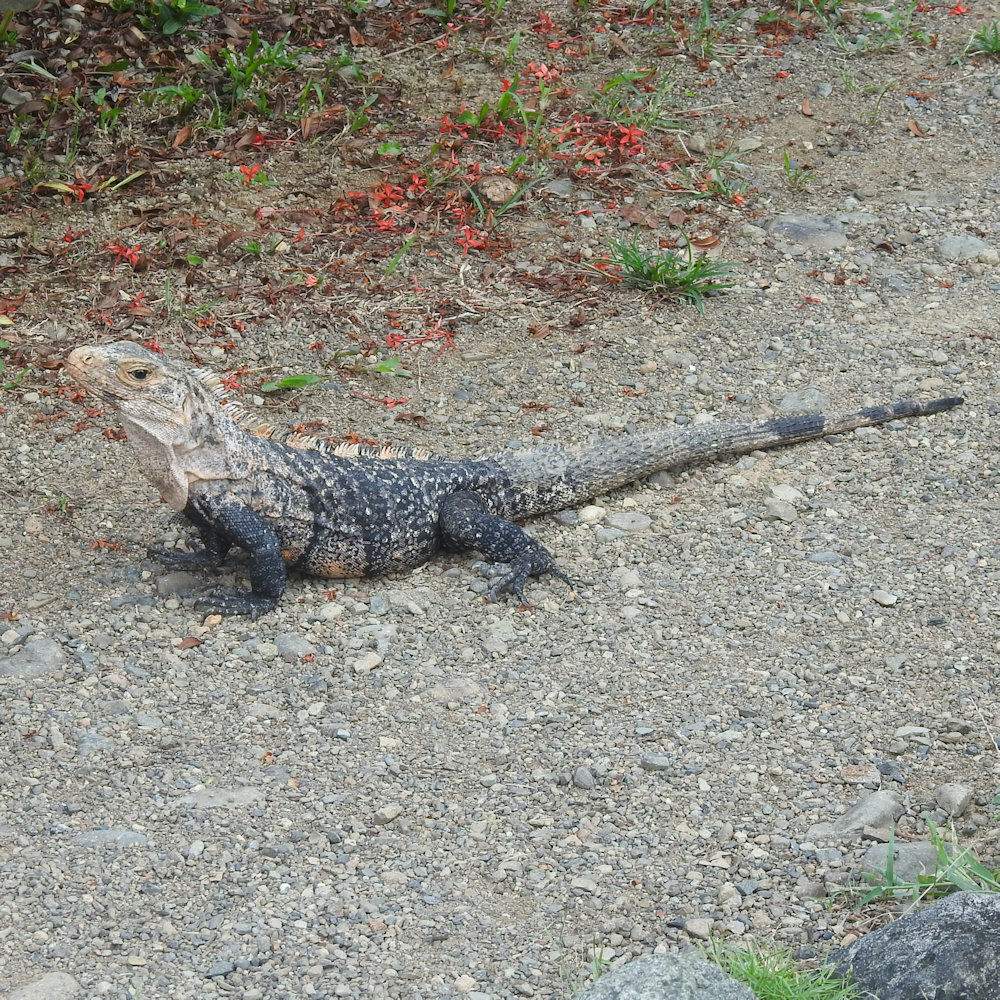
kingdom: Animalia
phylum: Chordata
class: Squamata
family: Iguanidae
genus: Ctenosaura
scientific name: Ctenosaura similis
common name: Black spiny-tailed iguana
